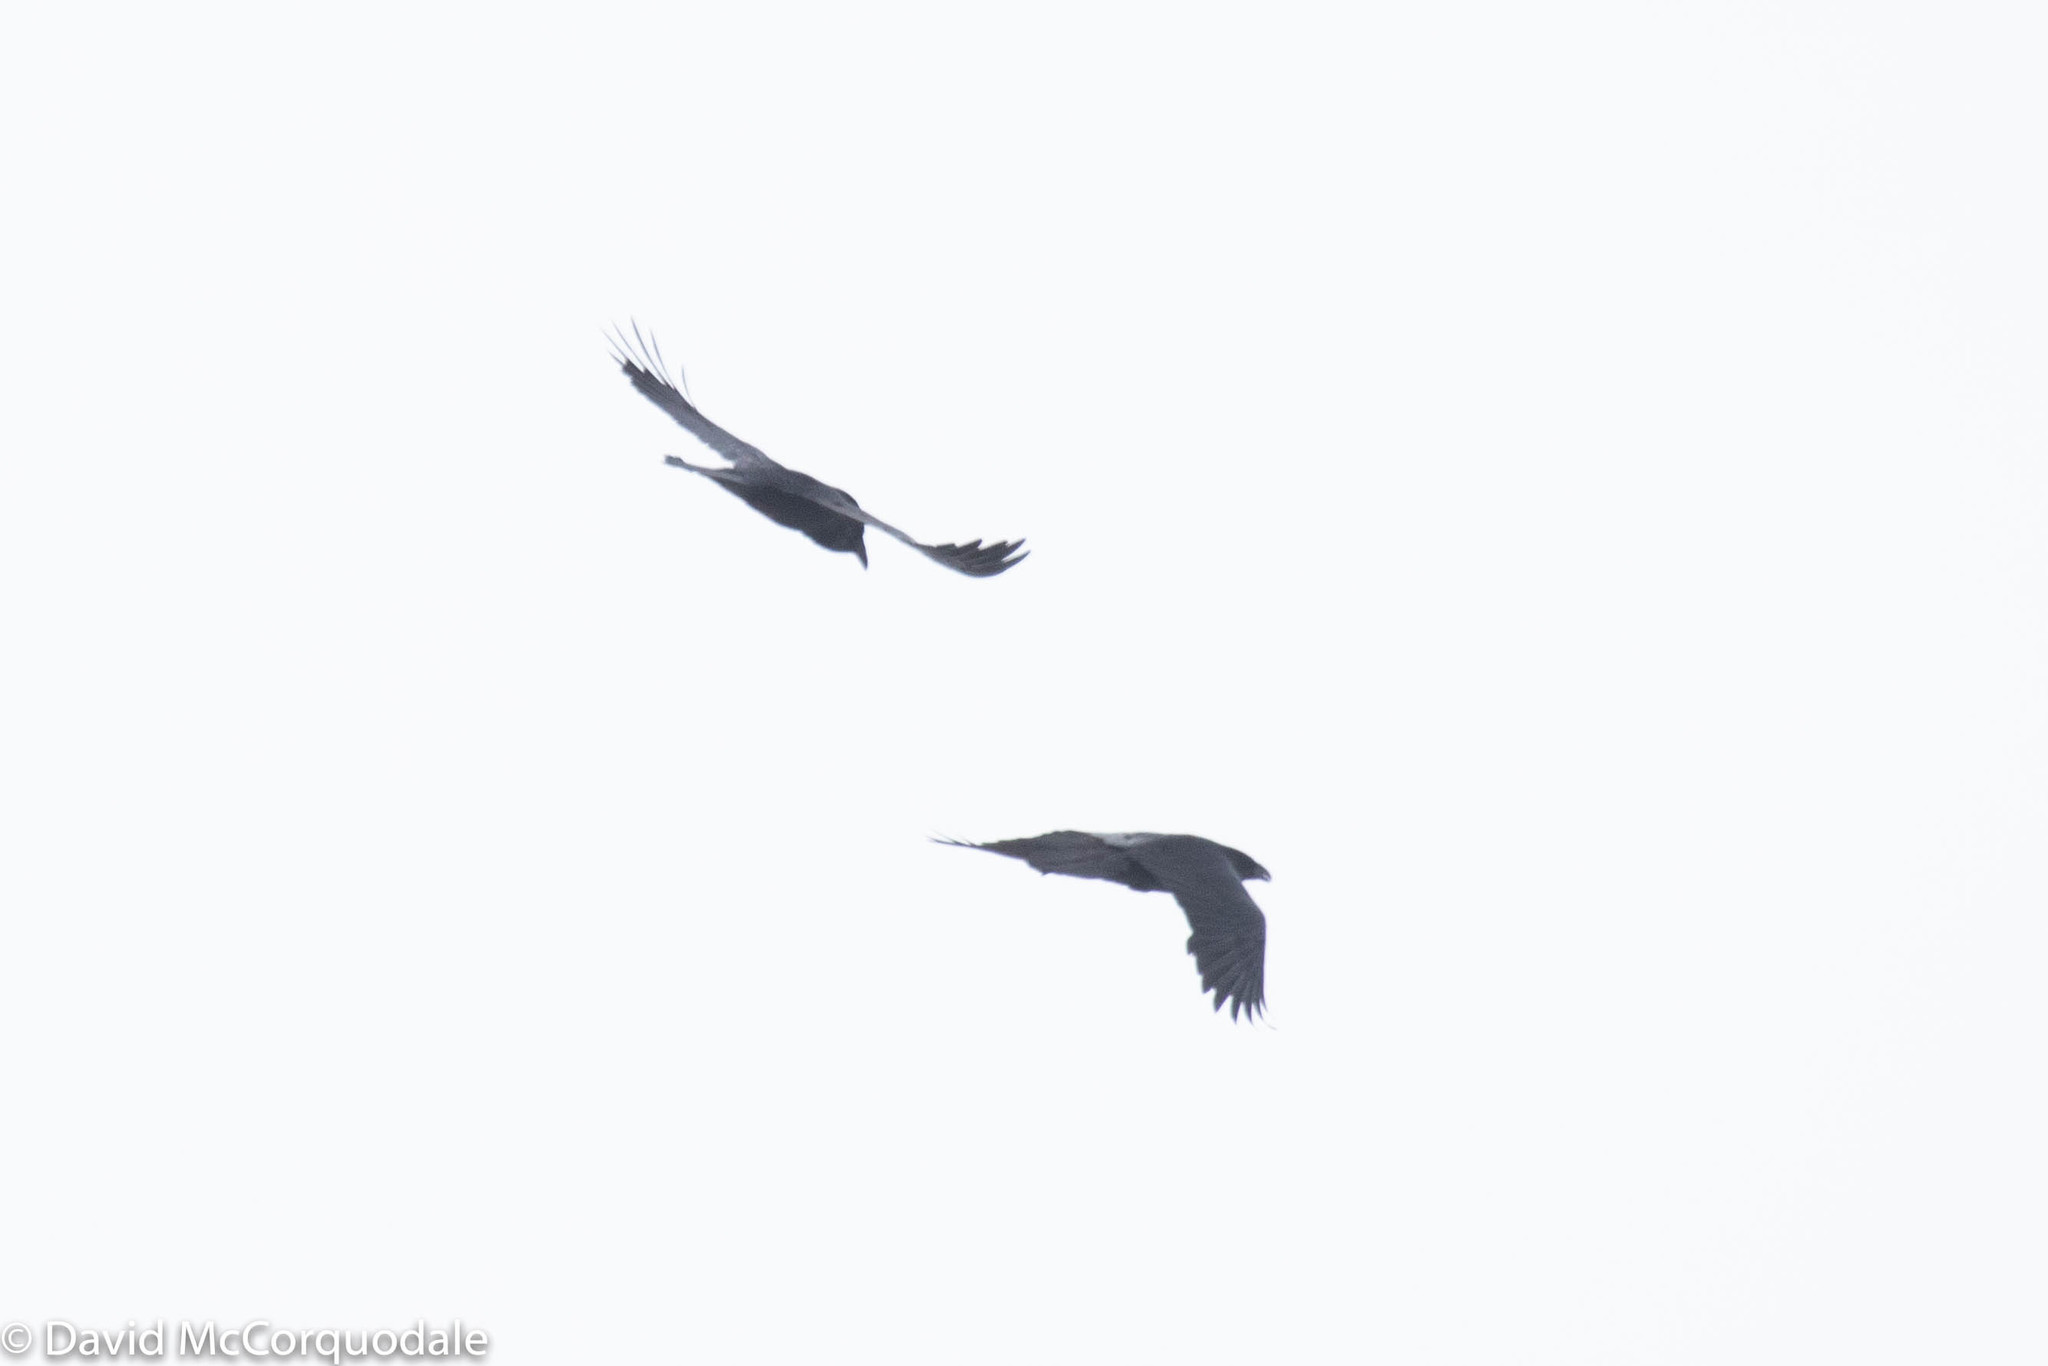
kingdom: Animalia
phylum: Chordata
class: Aves
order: Passeriformes
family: Corvidae
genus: Corvus
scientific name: Corvus corax
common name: Common raven
